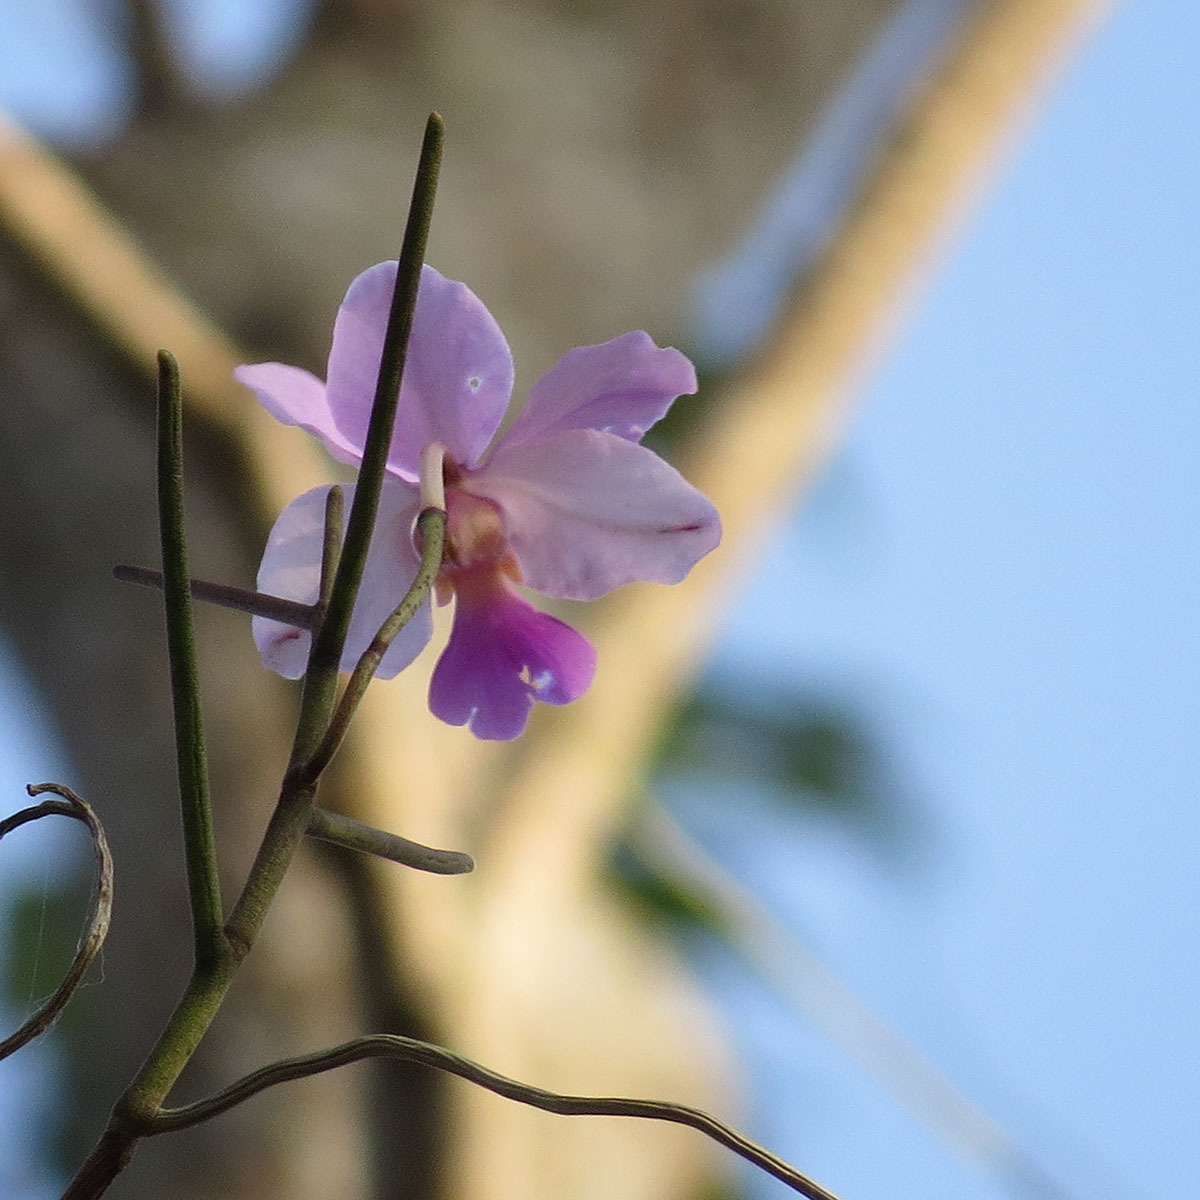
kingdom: Plantae
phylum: Tracheophyta
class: Liliopsida
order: Asparagales
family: Orchidaceae
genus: Papilionanthe
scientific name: Papilionanthe teres
